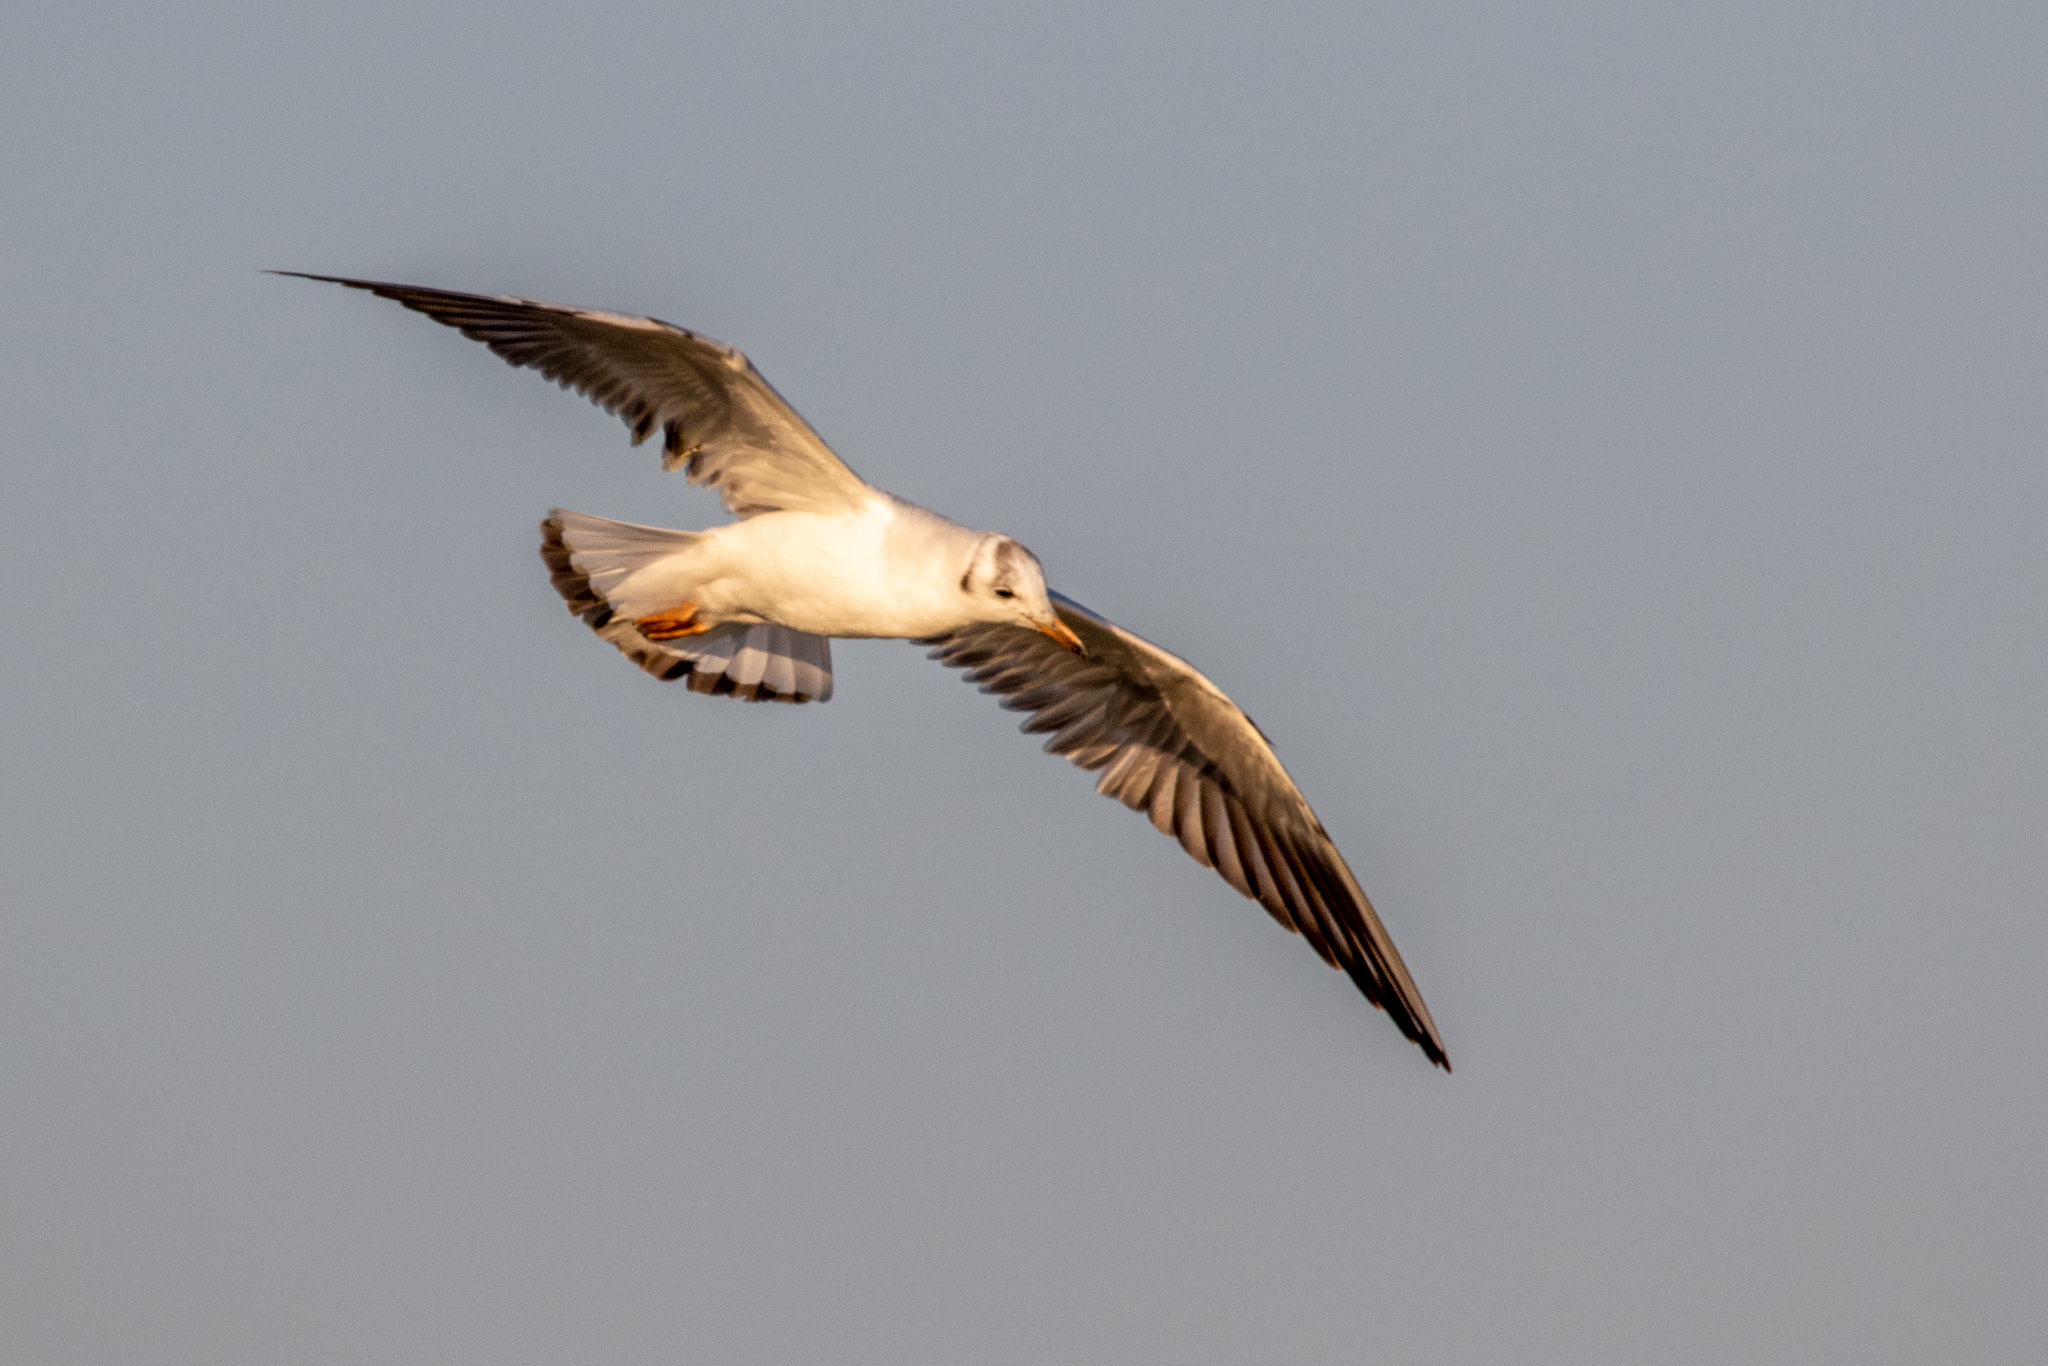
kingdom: Animalia
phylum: Chordata
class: Aves
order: Charadriiformes
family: Laridae
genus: Chroicocephalus
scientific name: Chroicocephalus ridibundus
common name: Black-headed gull
